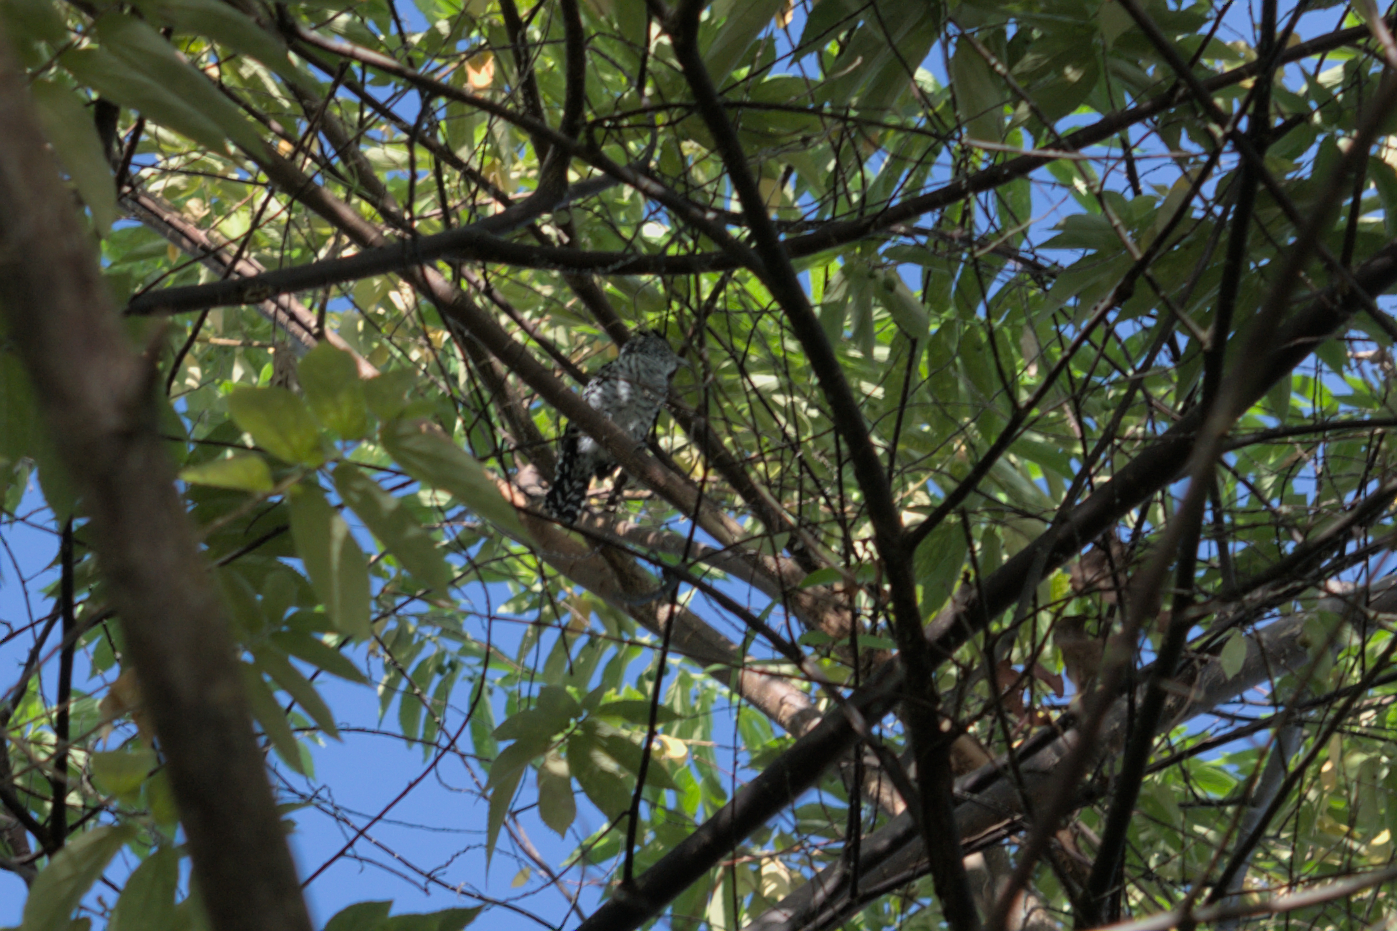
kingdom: Animalia
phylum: Chordata
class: Aves
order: Passeriformes
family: Thamnophilidae
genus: Thamnophilus
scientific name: Thamnophilus doliatus
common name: Barred antshrike
